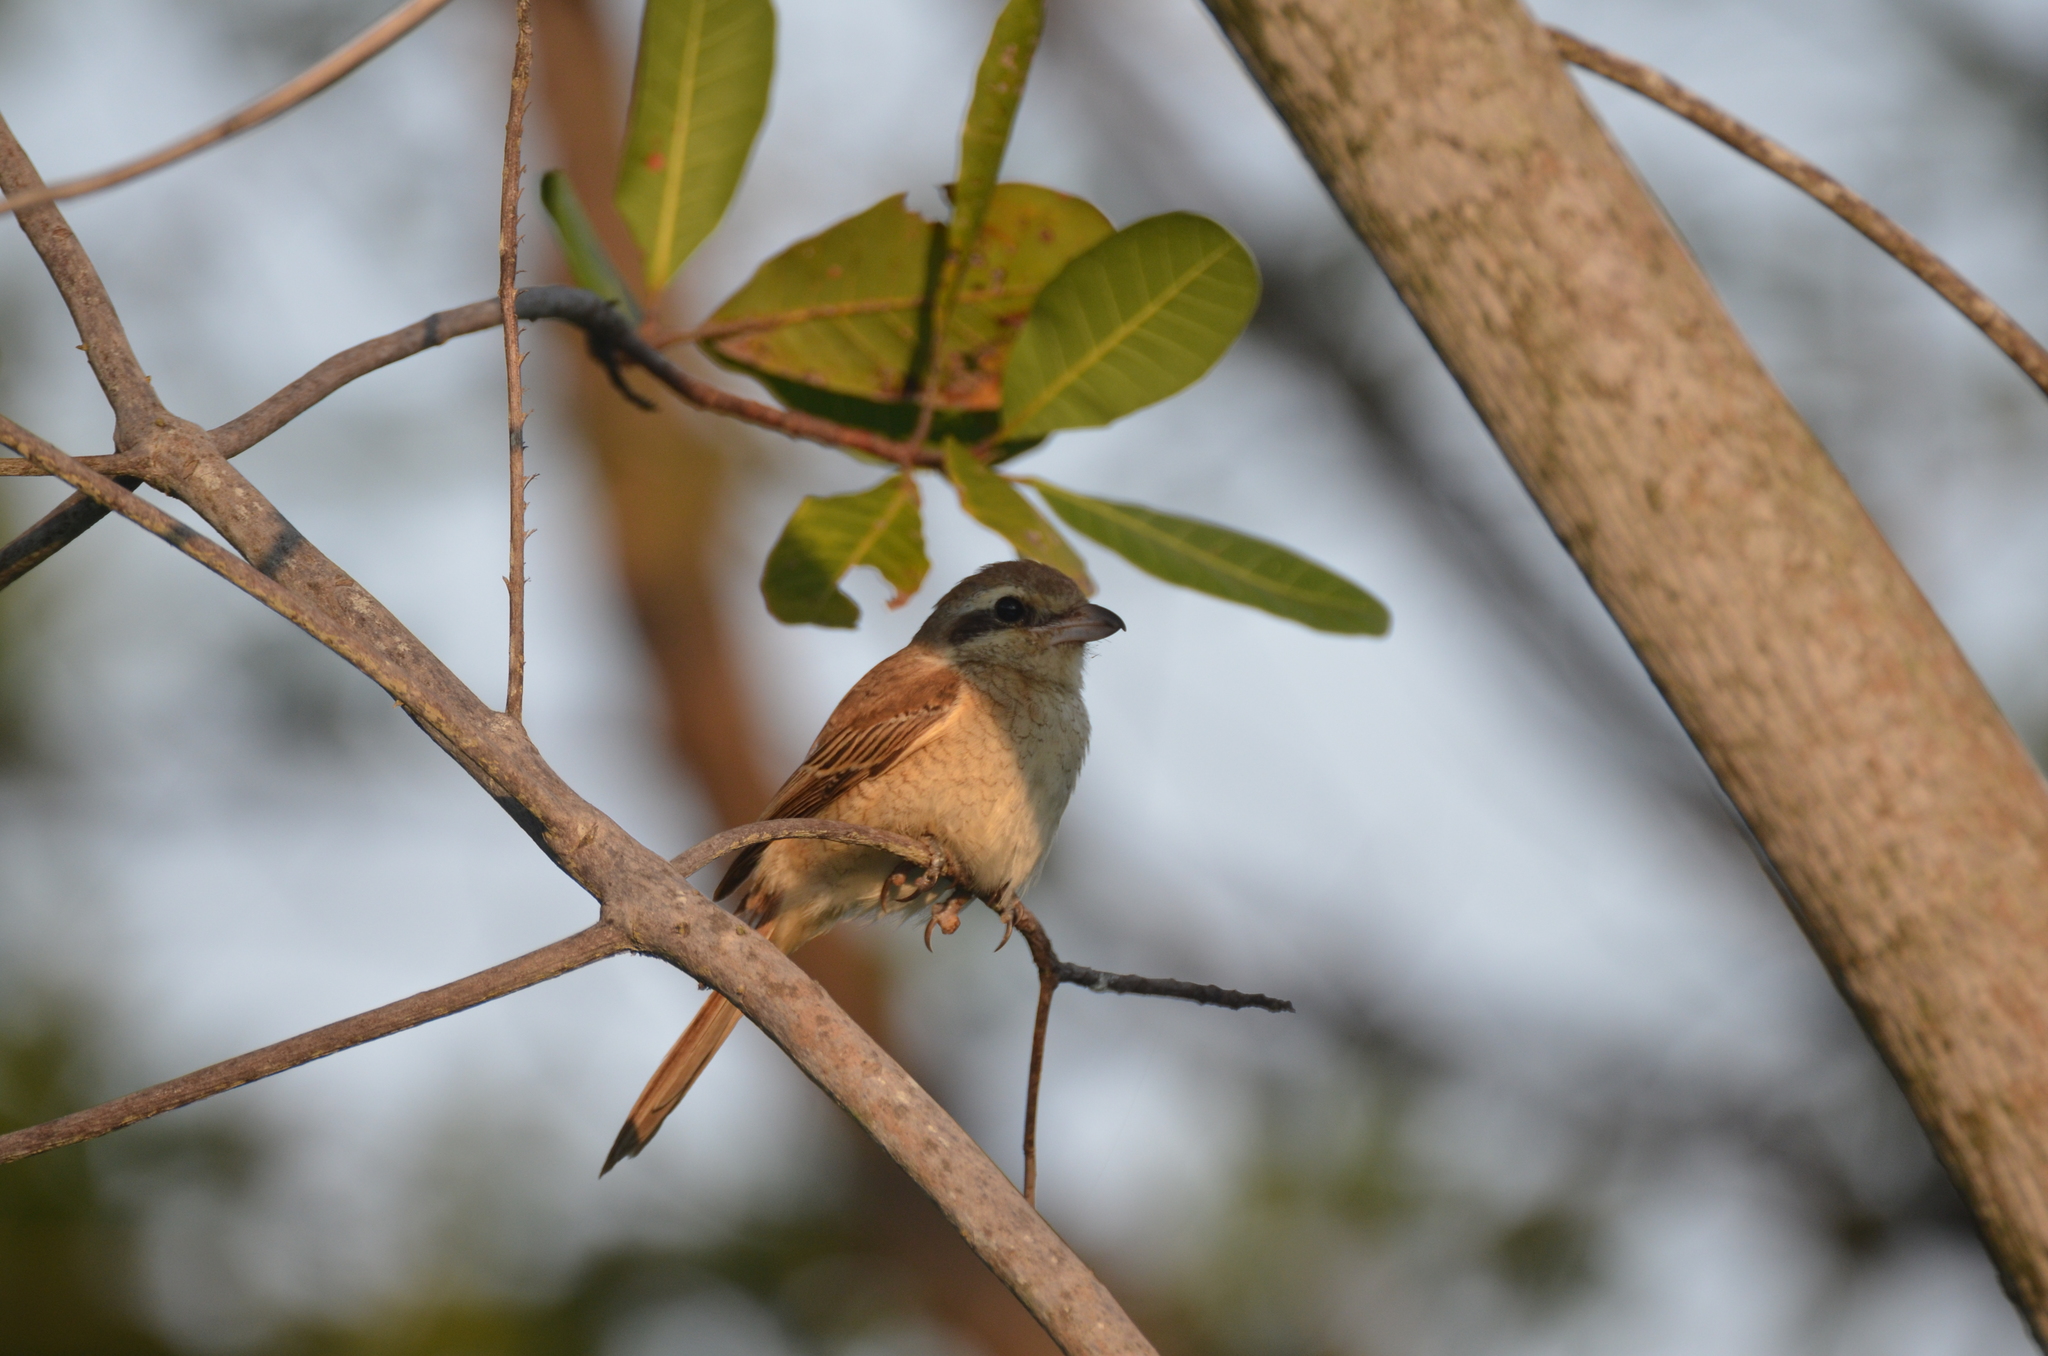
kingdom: Animalia
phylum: Chordata
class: Aves
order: Passeriformes
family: Laniidae
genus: Lanius
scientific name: Lanius cristatus
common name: Brown shrike
